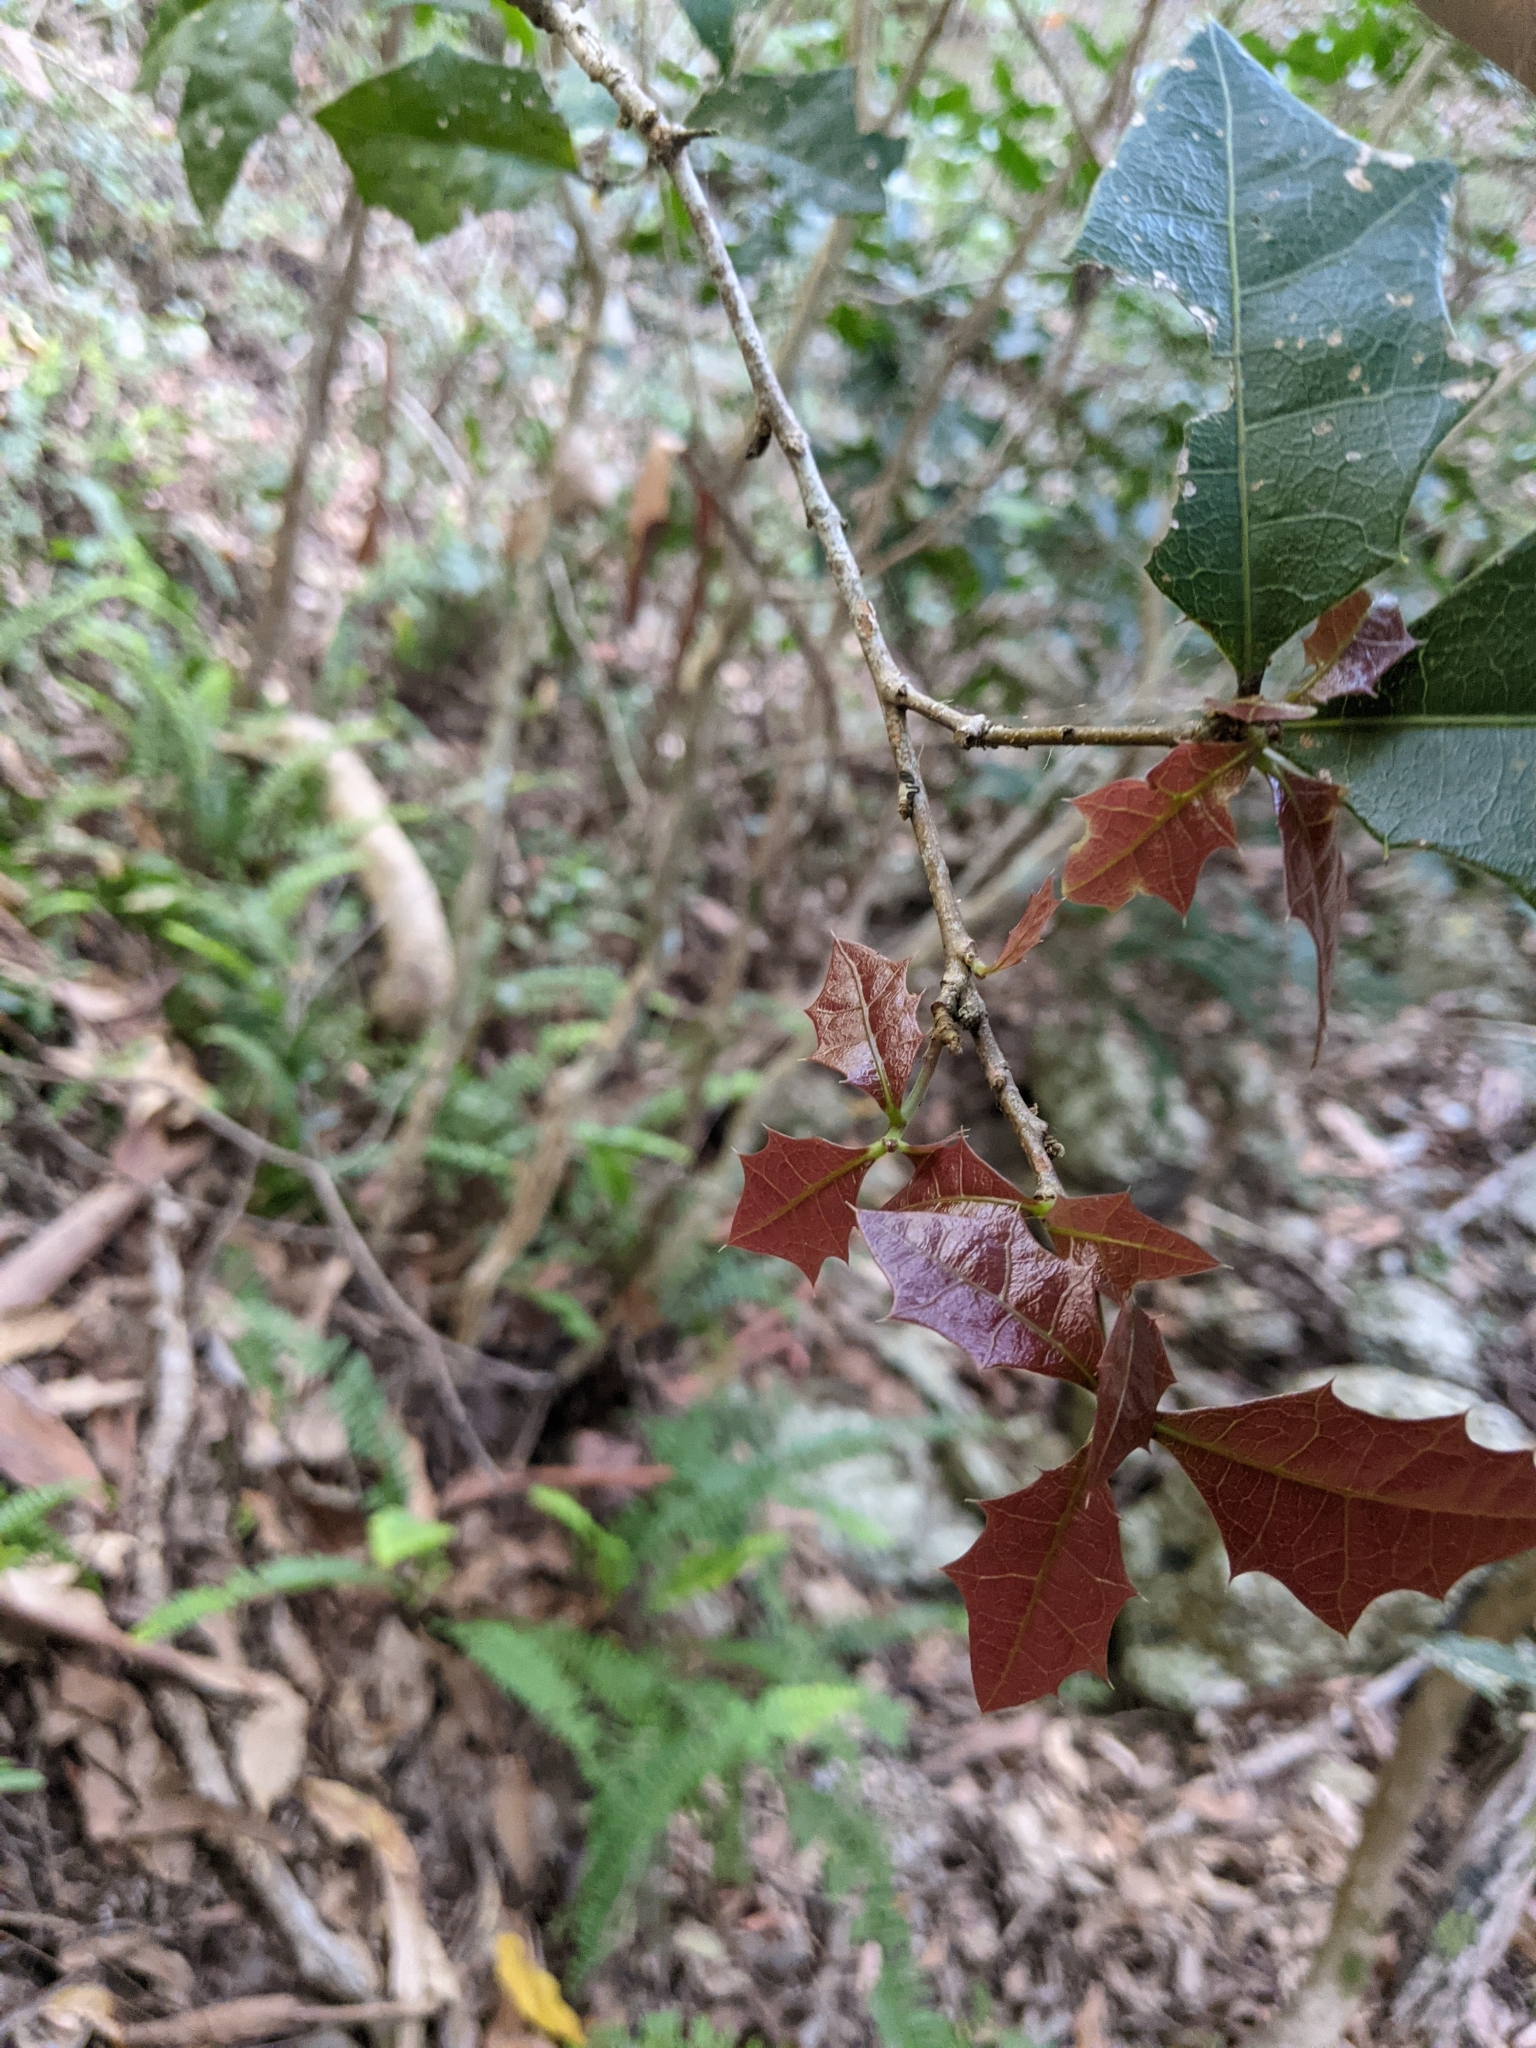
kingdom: Plantae
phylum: Tracheophyta
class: Magnoliopsida
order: Malpighiales
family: Euphorbiaceae
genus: Alchornea
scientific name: Alchornea ilicifolia
